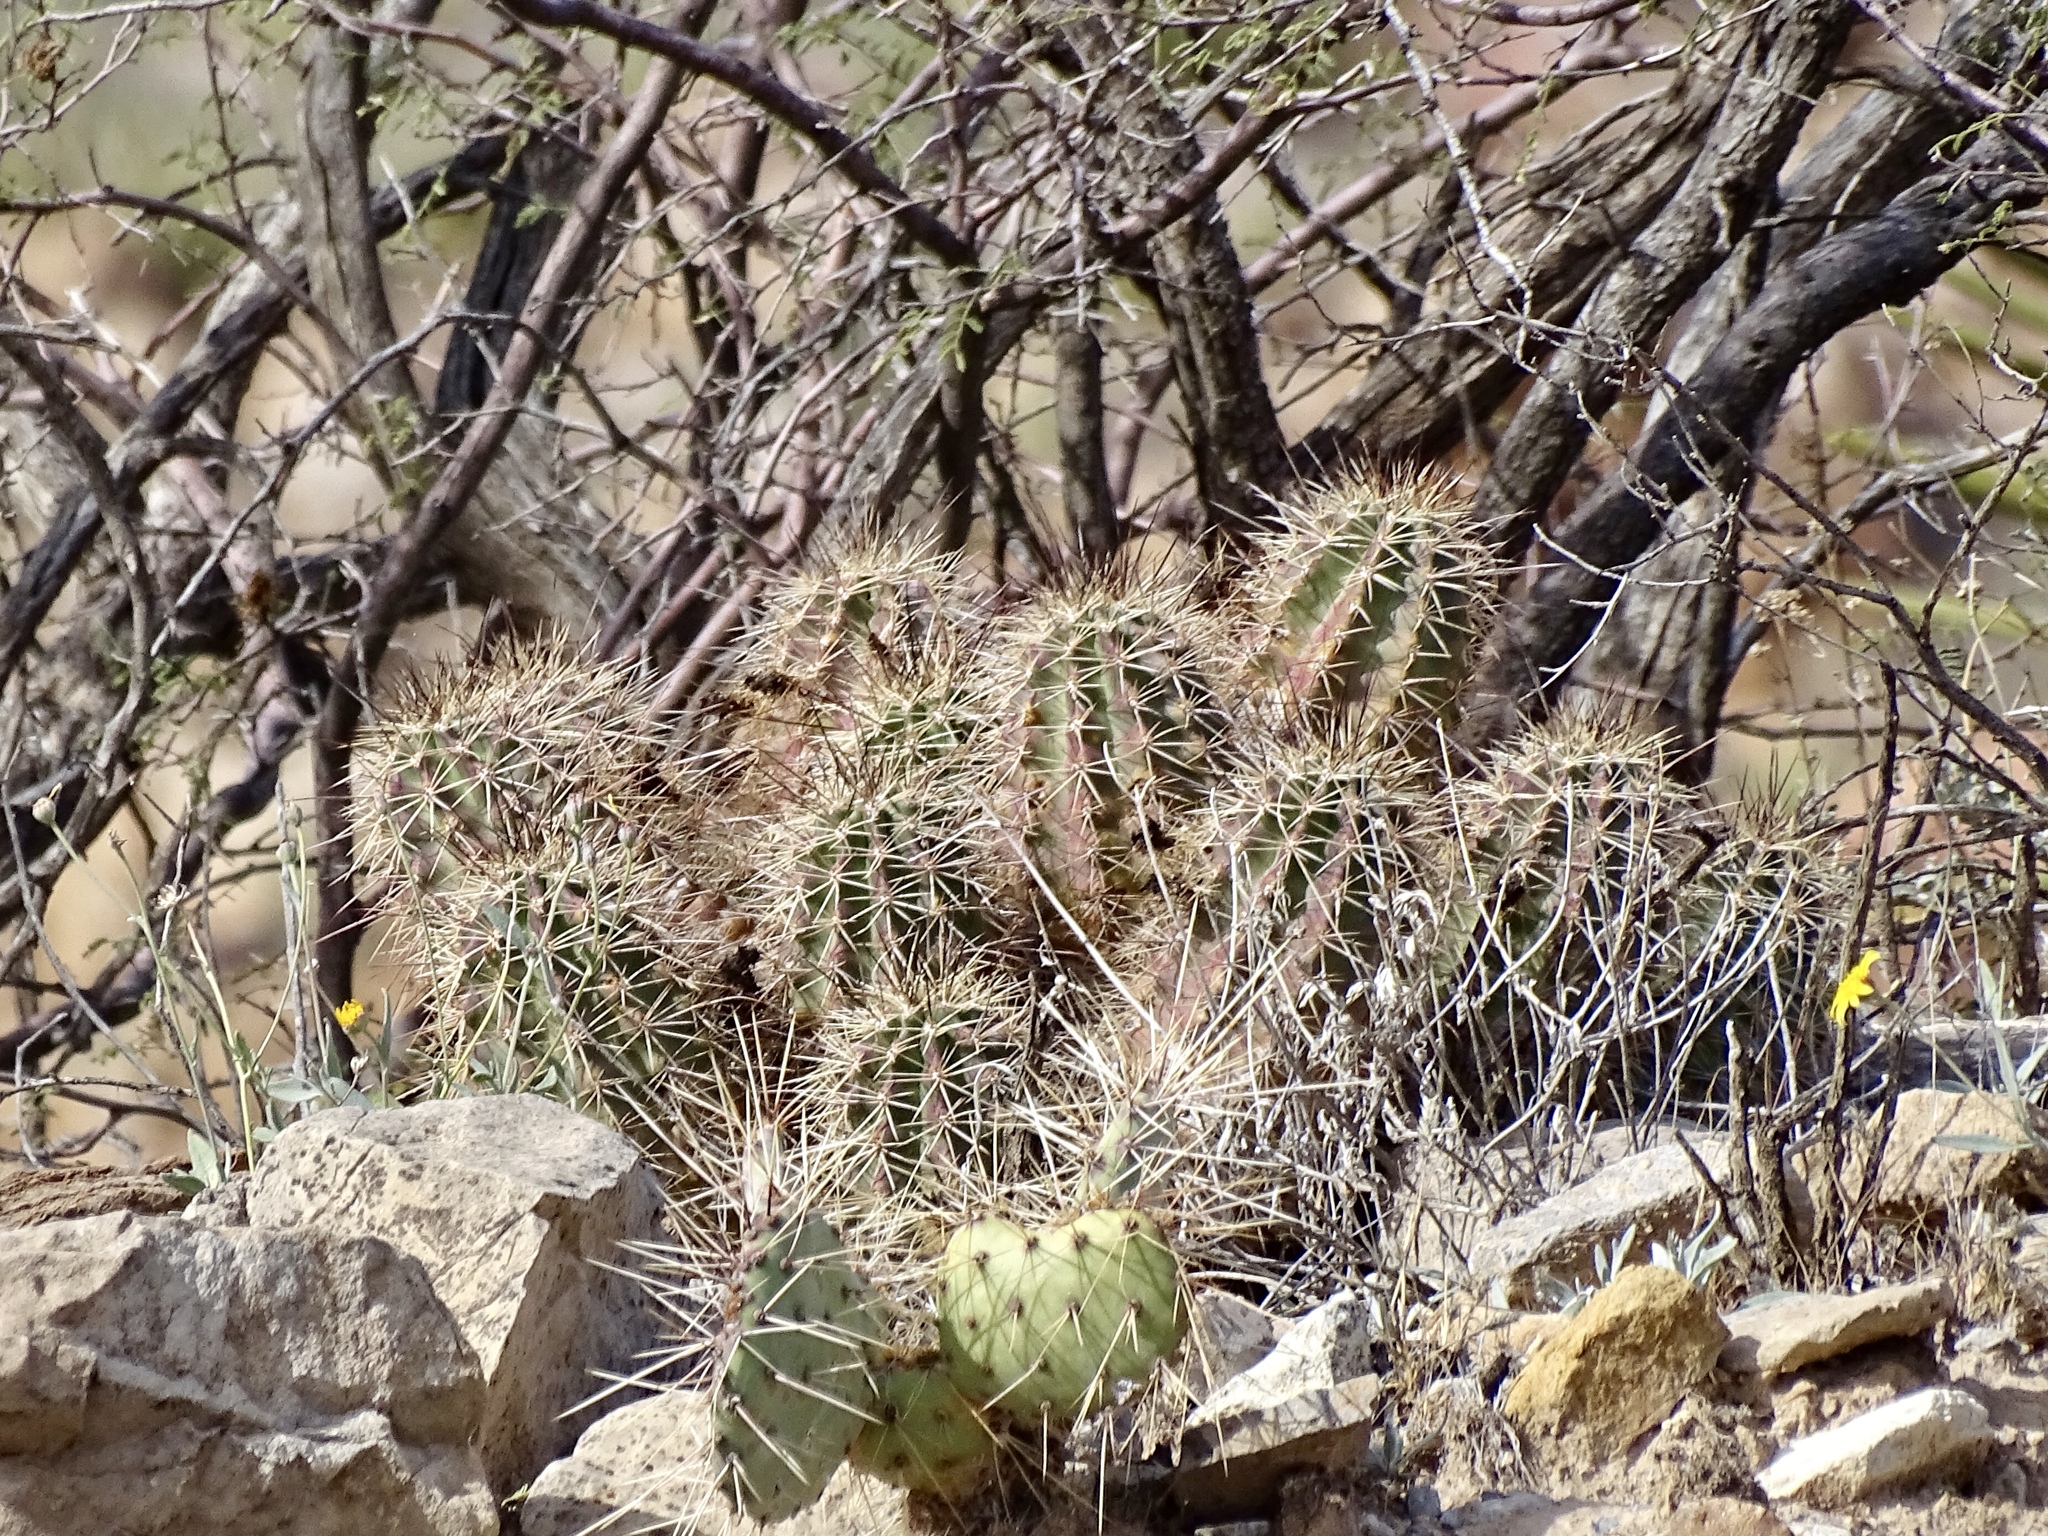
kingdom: Plantae
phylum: Tracheophyta
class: Magnoliopsida
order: Caryophyllales
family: Cactaceae
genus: Echinocereus
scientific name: Echinocereus coccineus
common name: Scarlet hedgehog cactus
